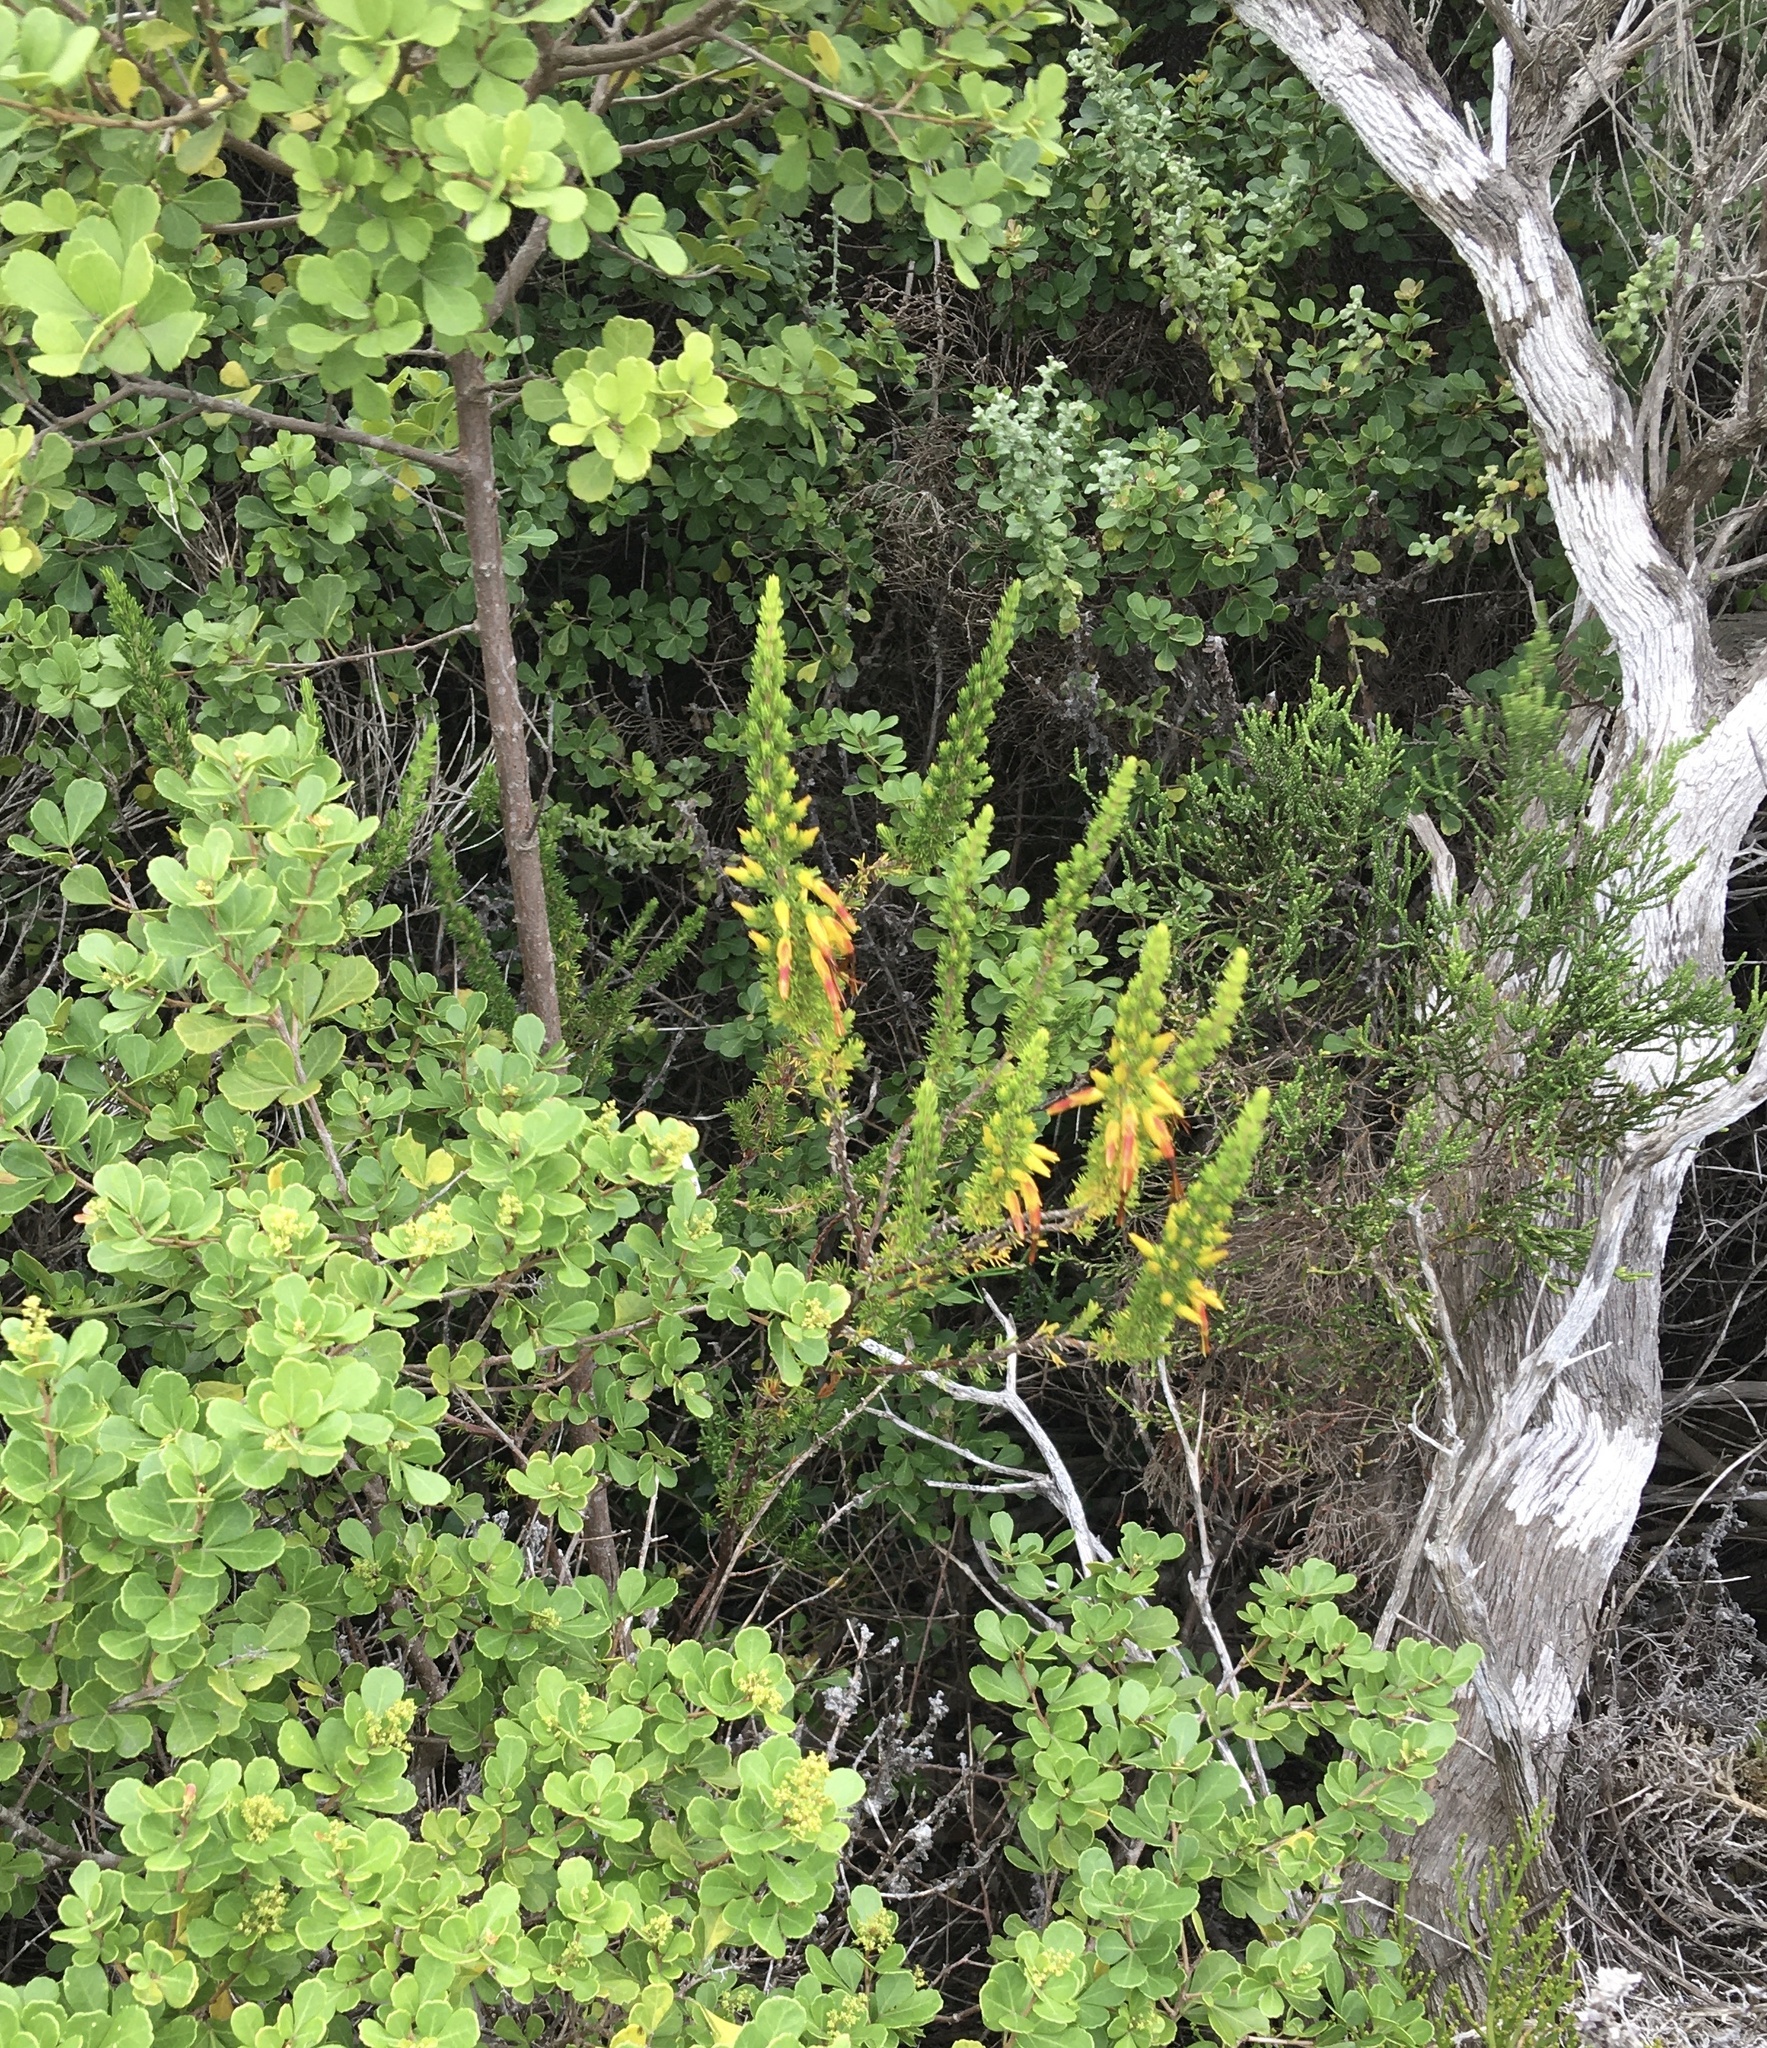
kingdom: Plantae
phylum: Tracheophyta
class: Magnoliopsida
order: Ericales
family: Ericaceae
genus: Erica
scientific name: Erica coccinea
